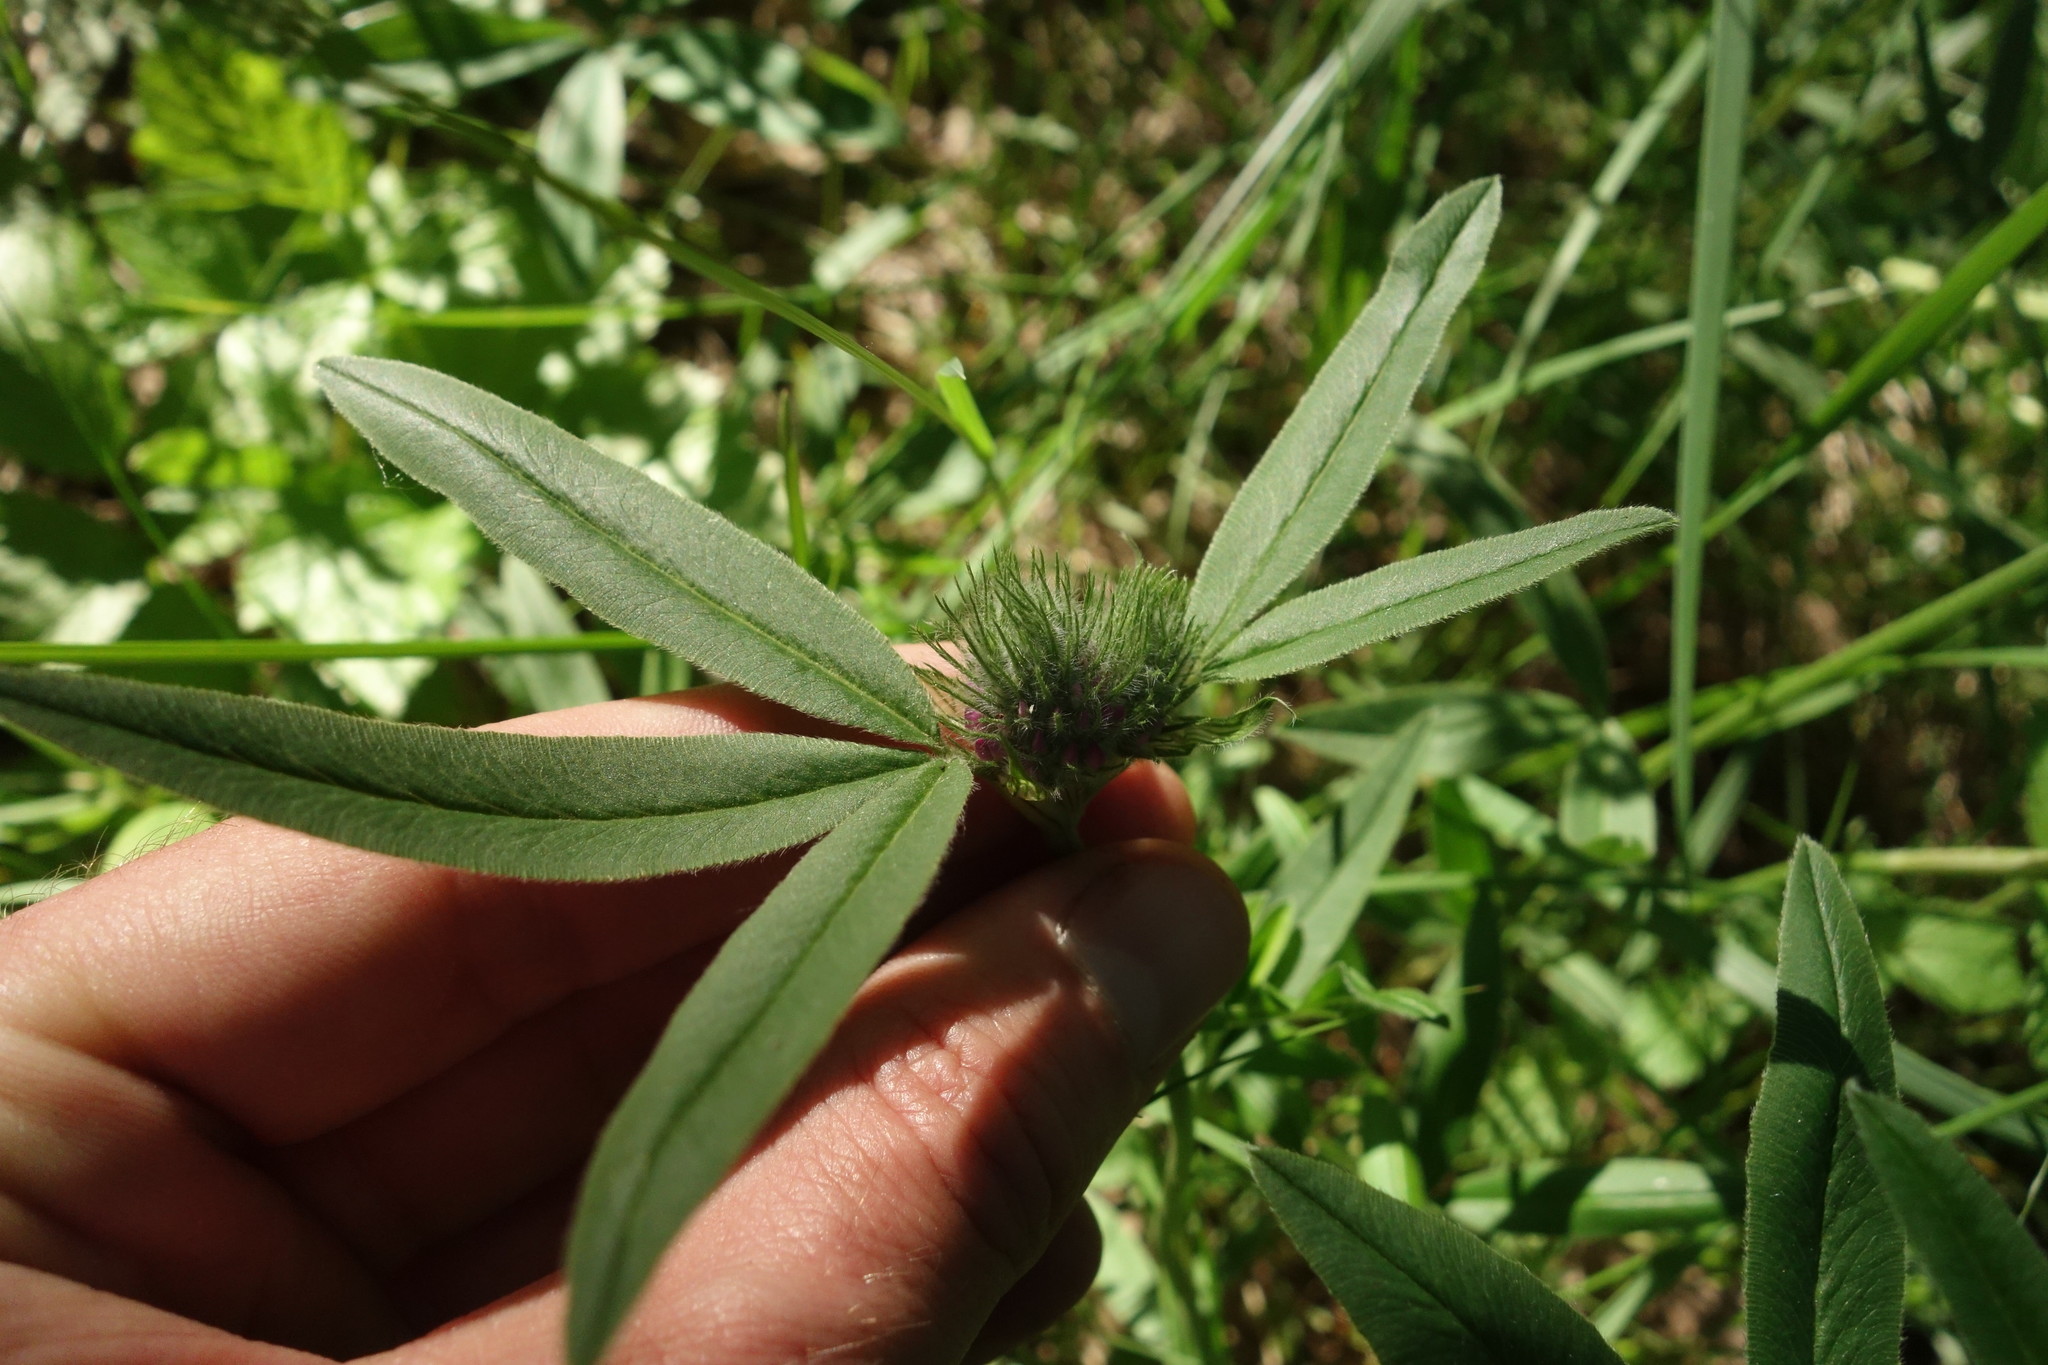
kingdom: Plantae
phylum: Tracheophyta
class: Magnoliopsida
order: Fabales
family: Fabaceae
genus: Trifolium
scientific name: Trifolium alpestre
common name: Owl-head clover
